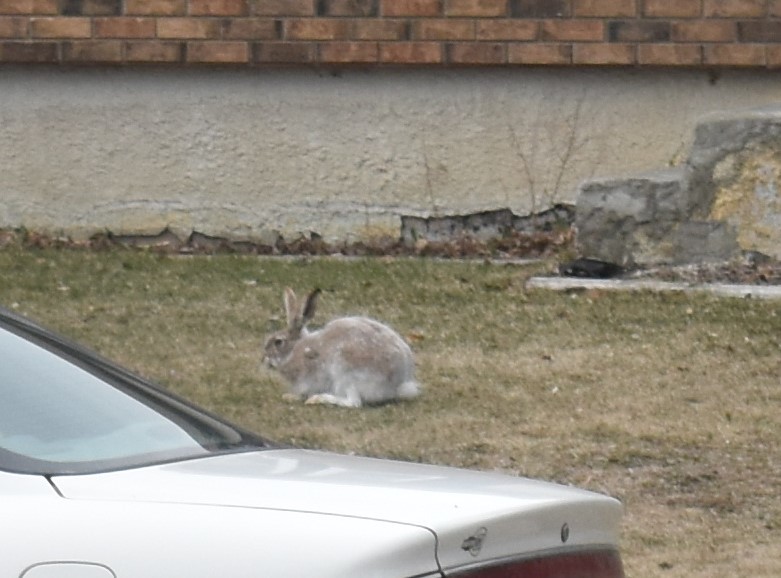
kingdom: Animalia
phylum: Chordata
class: Mammalia
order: Lagomorpha
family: Leporidae
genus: Lepus
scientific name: Lepus townsendii
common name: White-tailed jackrabbit
